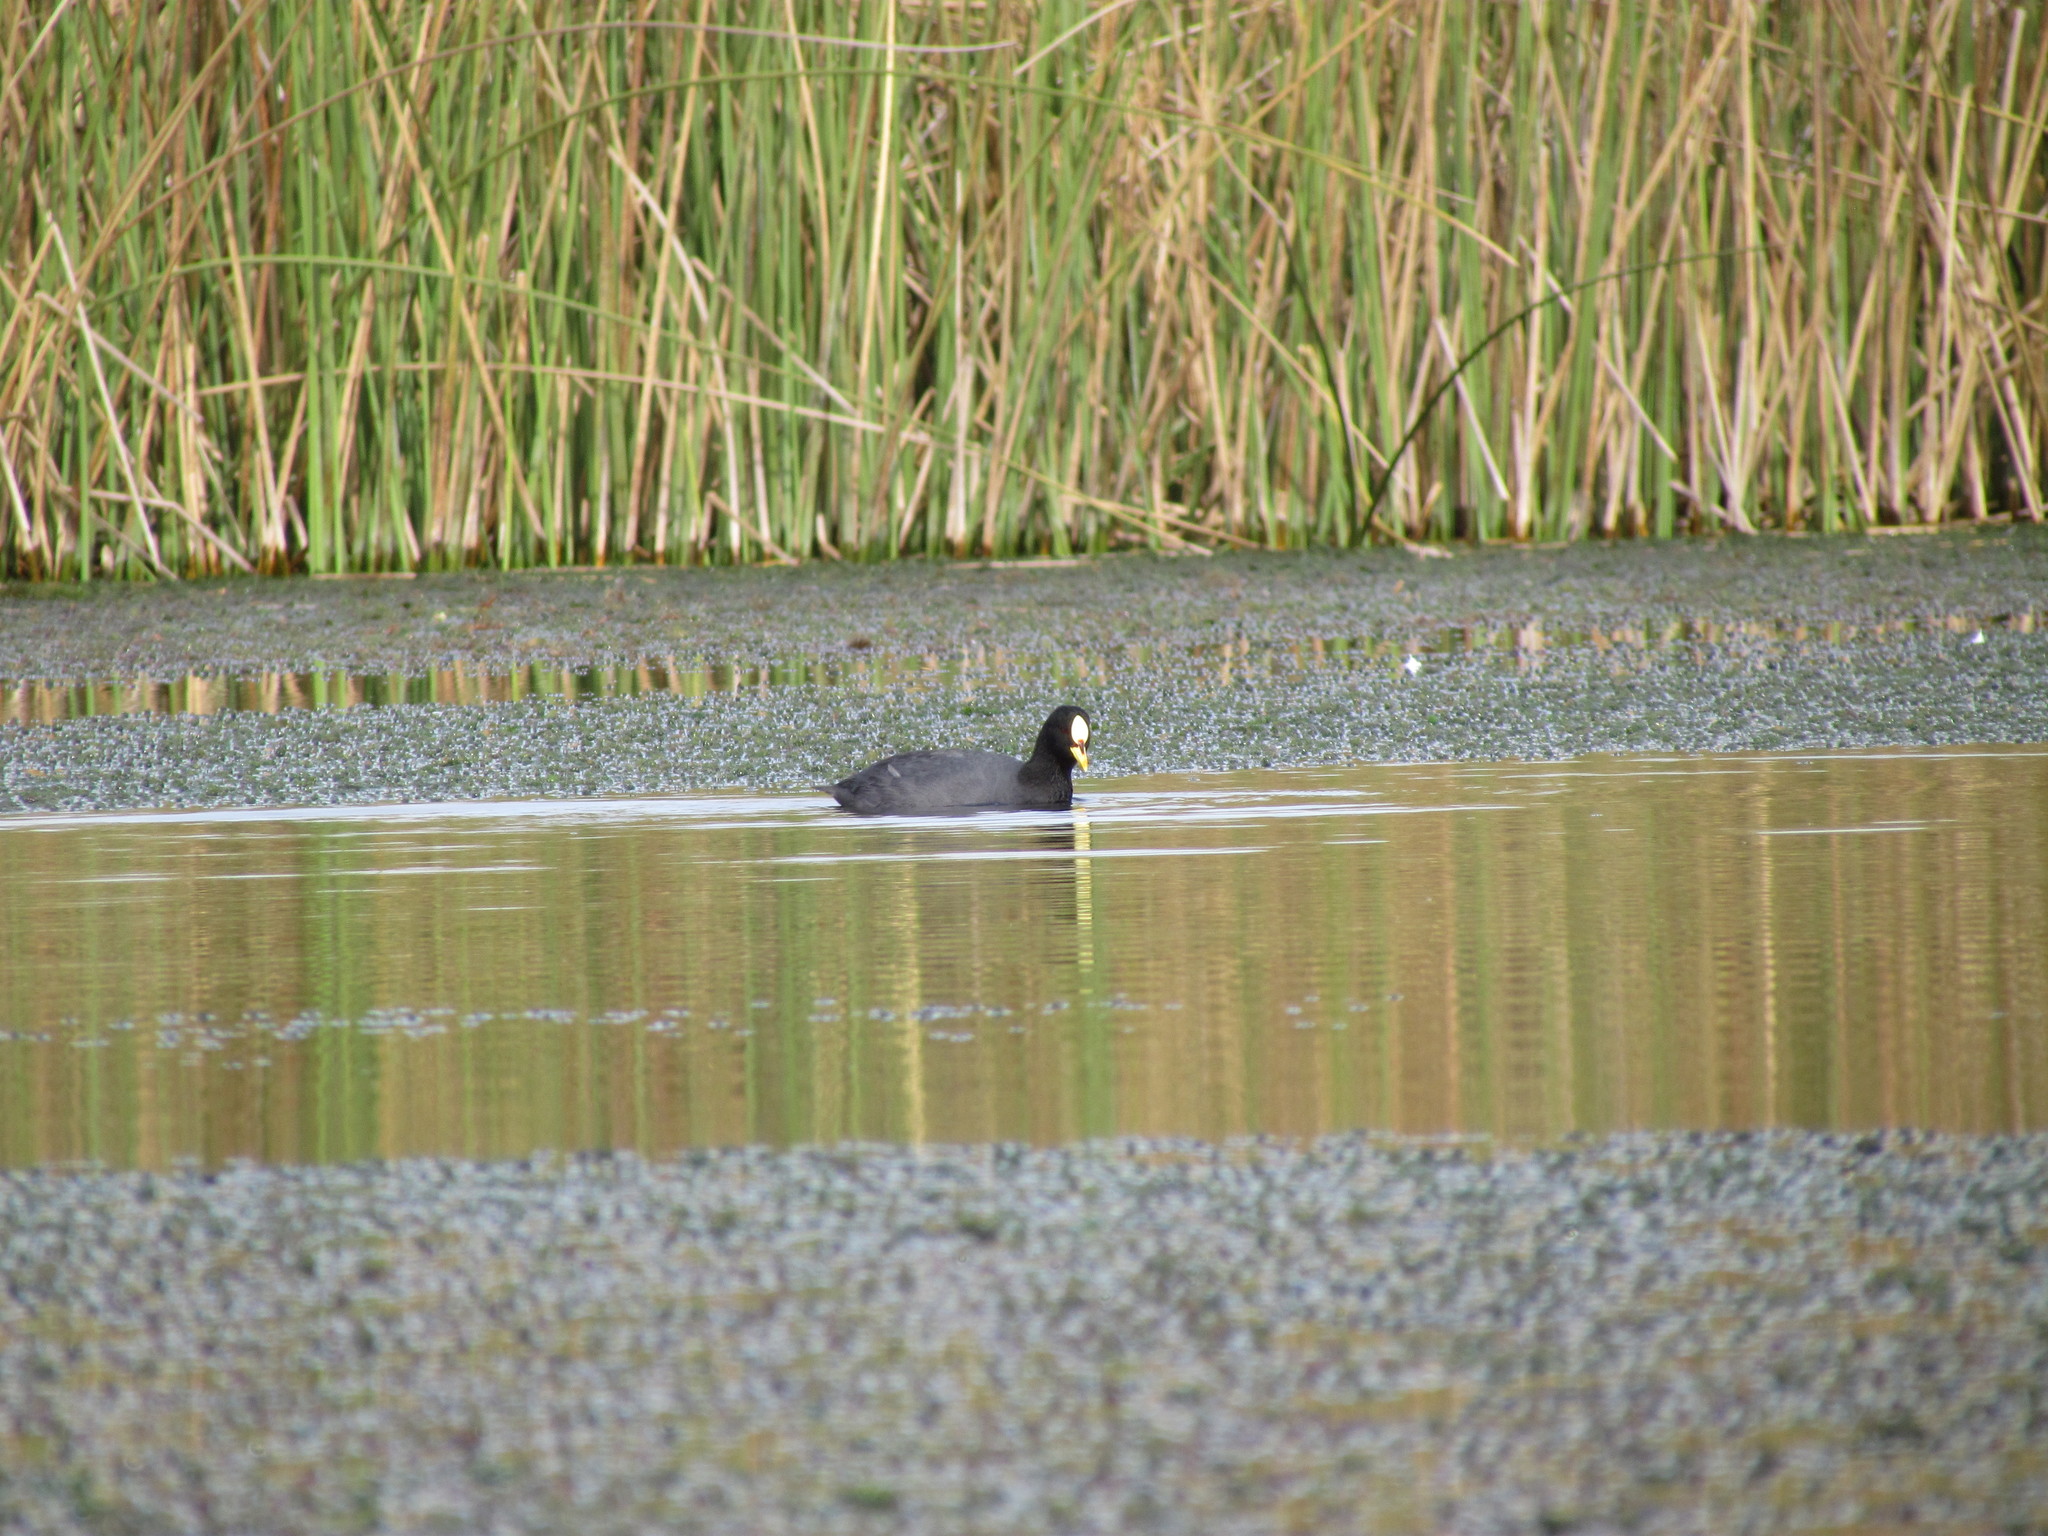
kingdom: Animalia
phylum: Chordata
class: Aves
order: Gruiformes
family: Rallidae
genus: Fulica
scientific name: Fulica armillata
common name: Red-gartered coot
